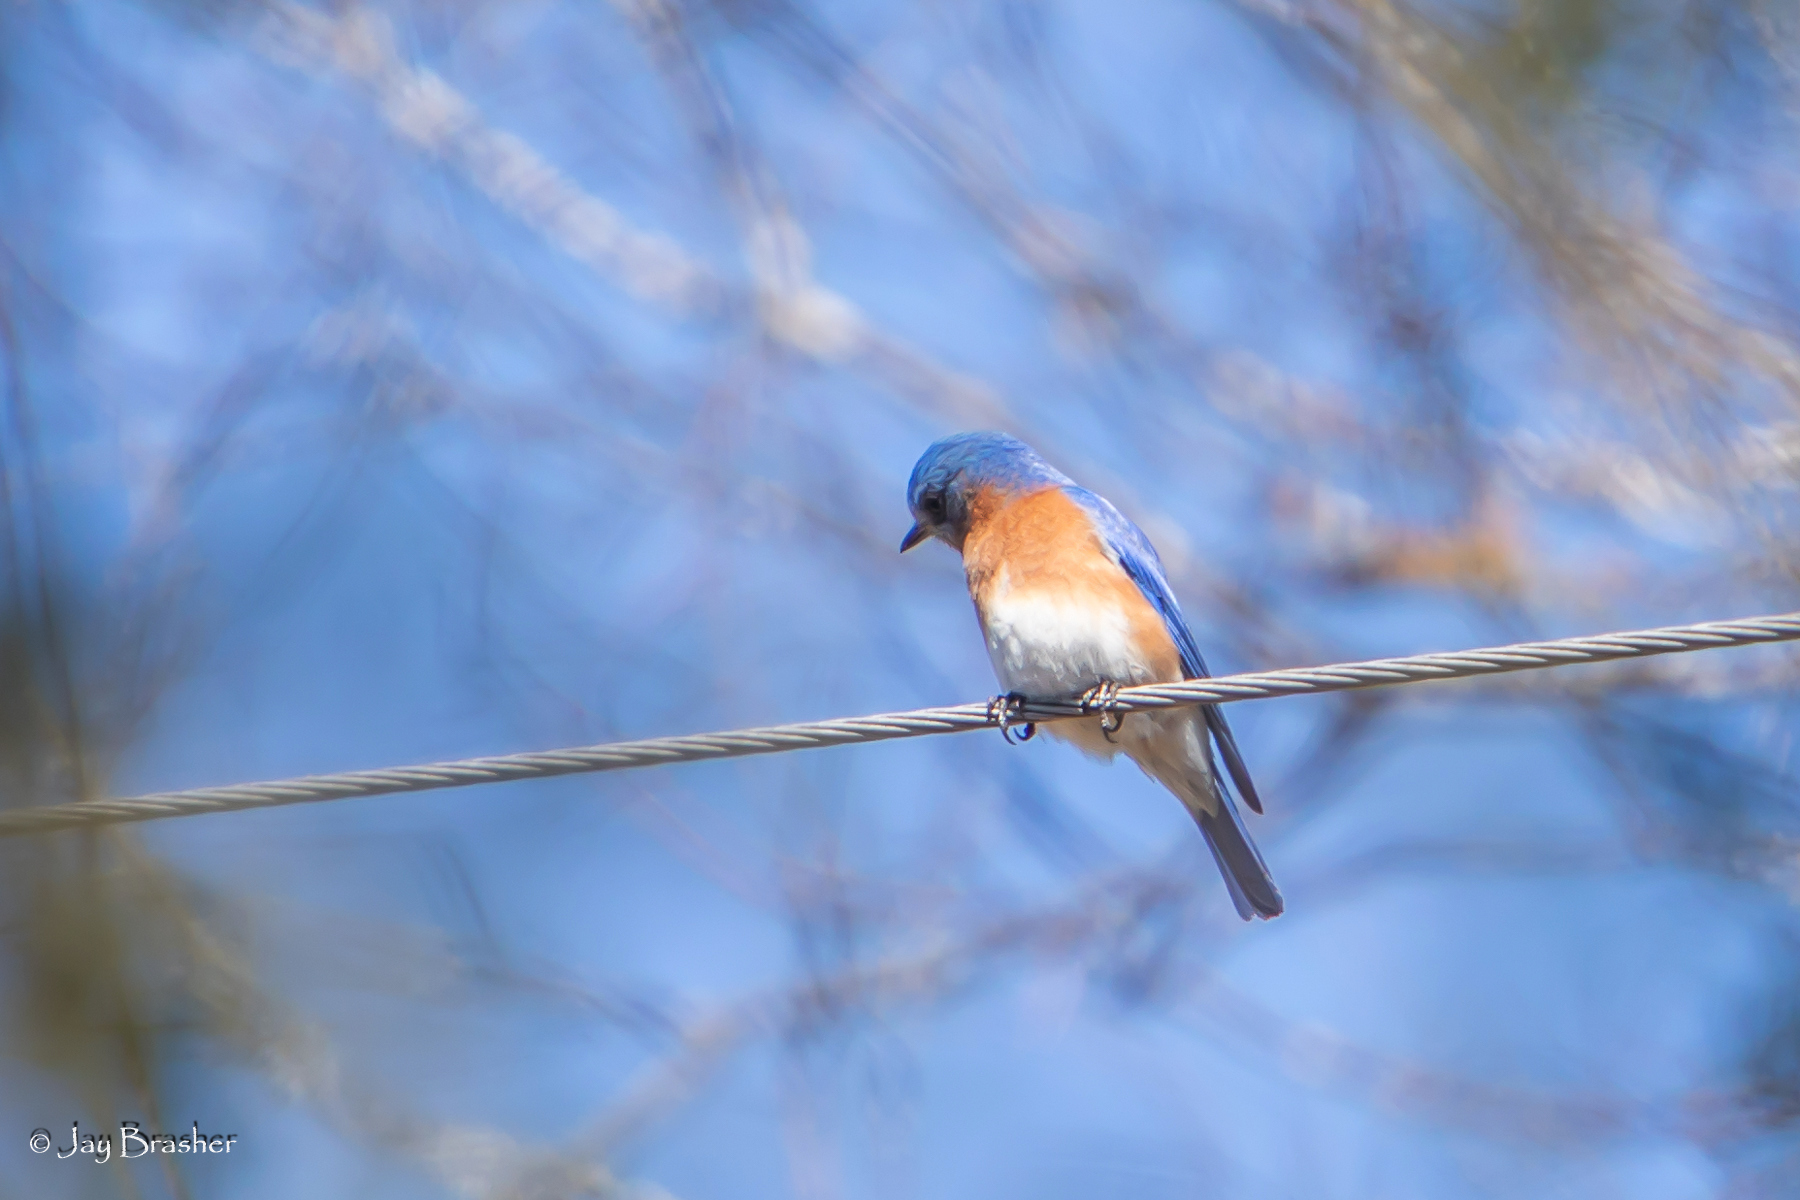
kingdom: Animalia
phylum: Chordata
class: Aves
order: Passeriformes
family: Turdidae
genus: Sialia
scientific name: Sialia sialis
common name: Eastern bluebird
